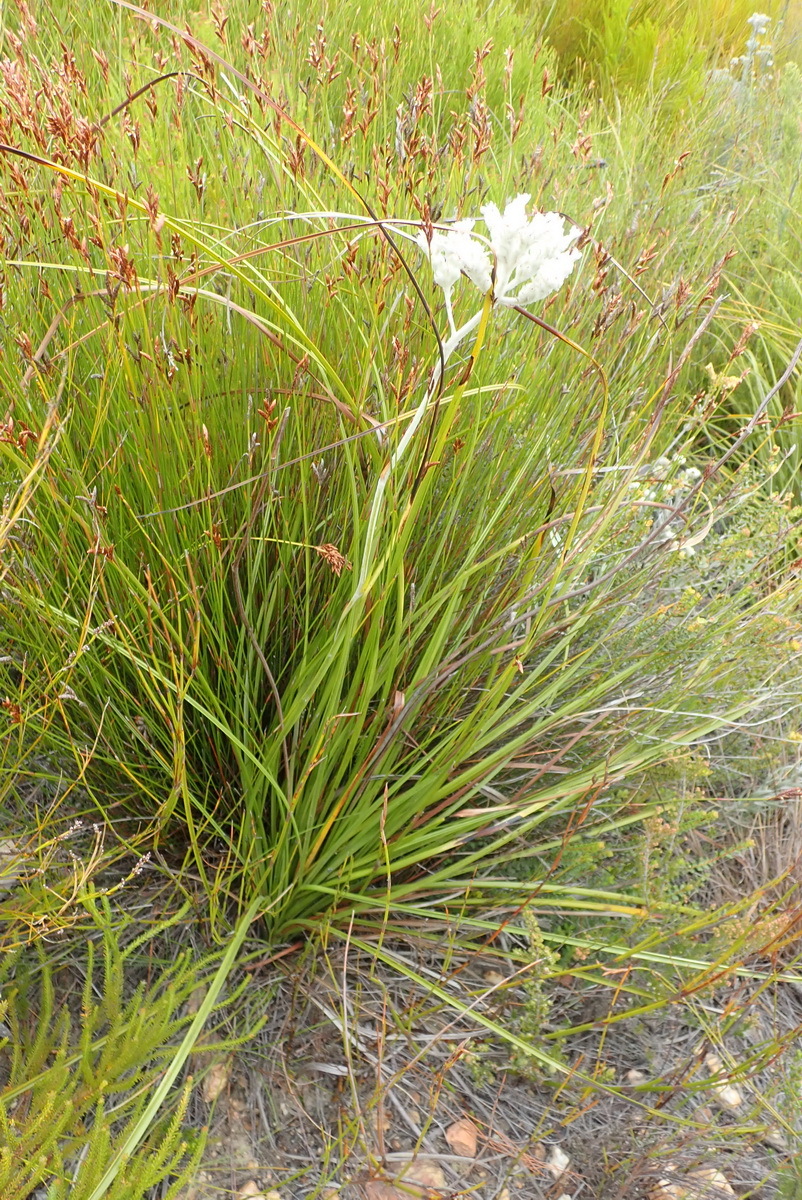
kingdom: Plantae
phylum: Tracheophyta
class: Liliopsida
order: Asparagales
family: Lanariaceae
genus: Lanaria
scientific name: Lanaria lanata
